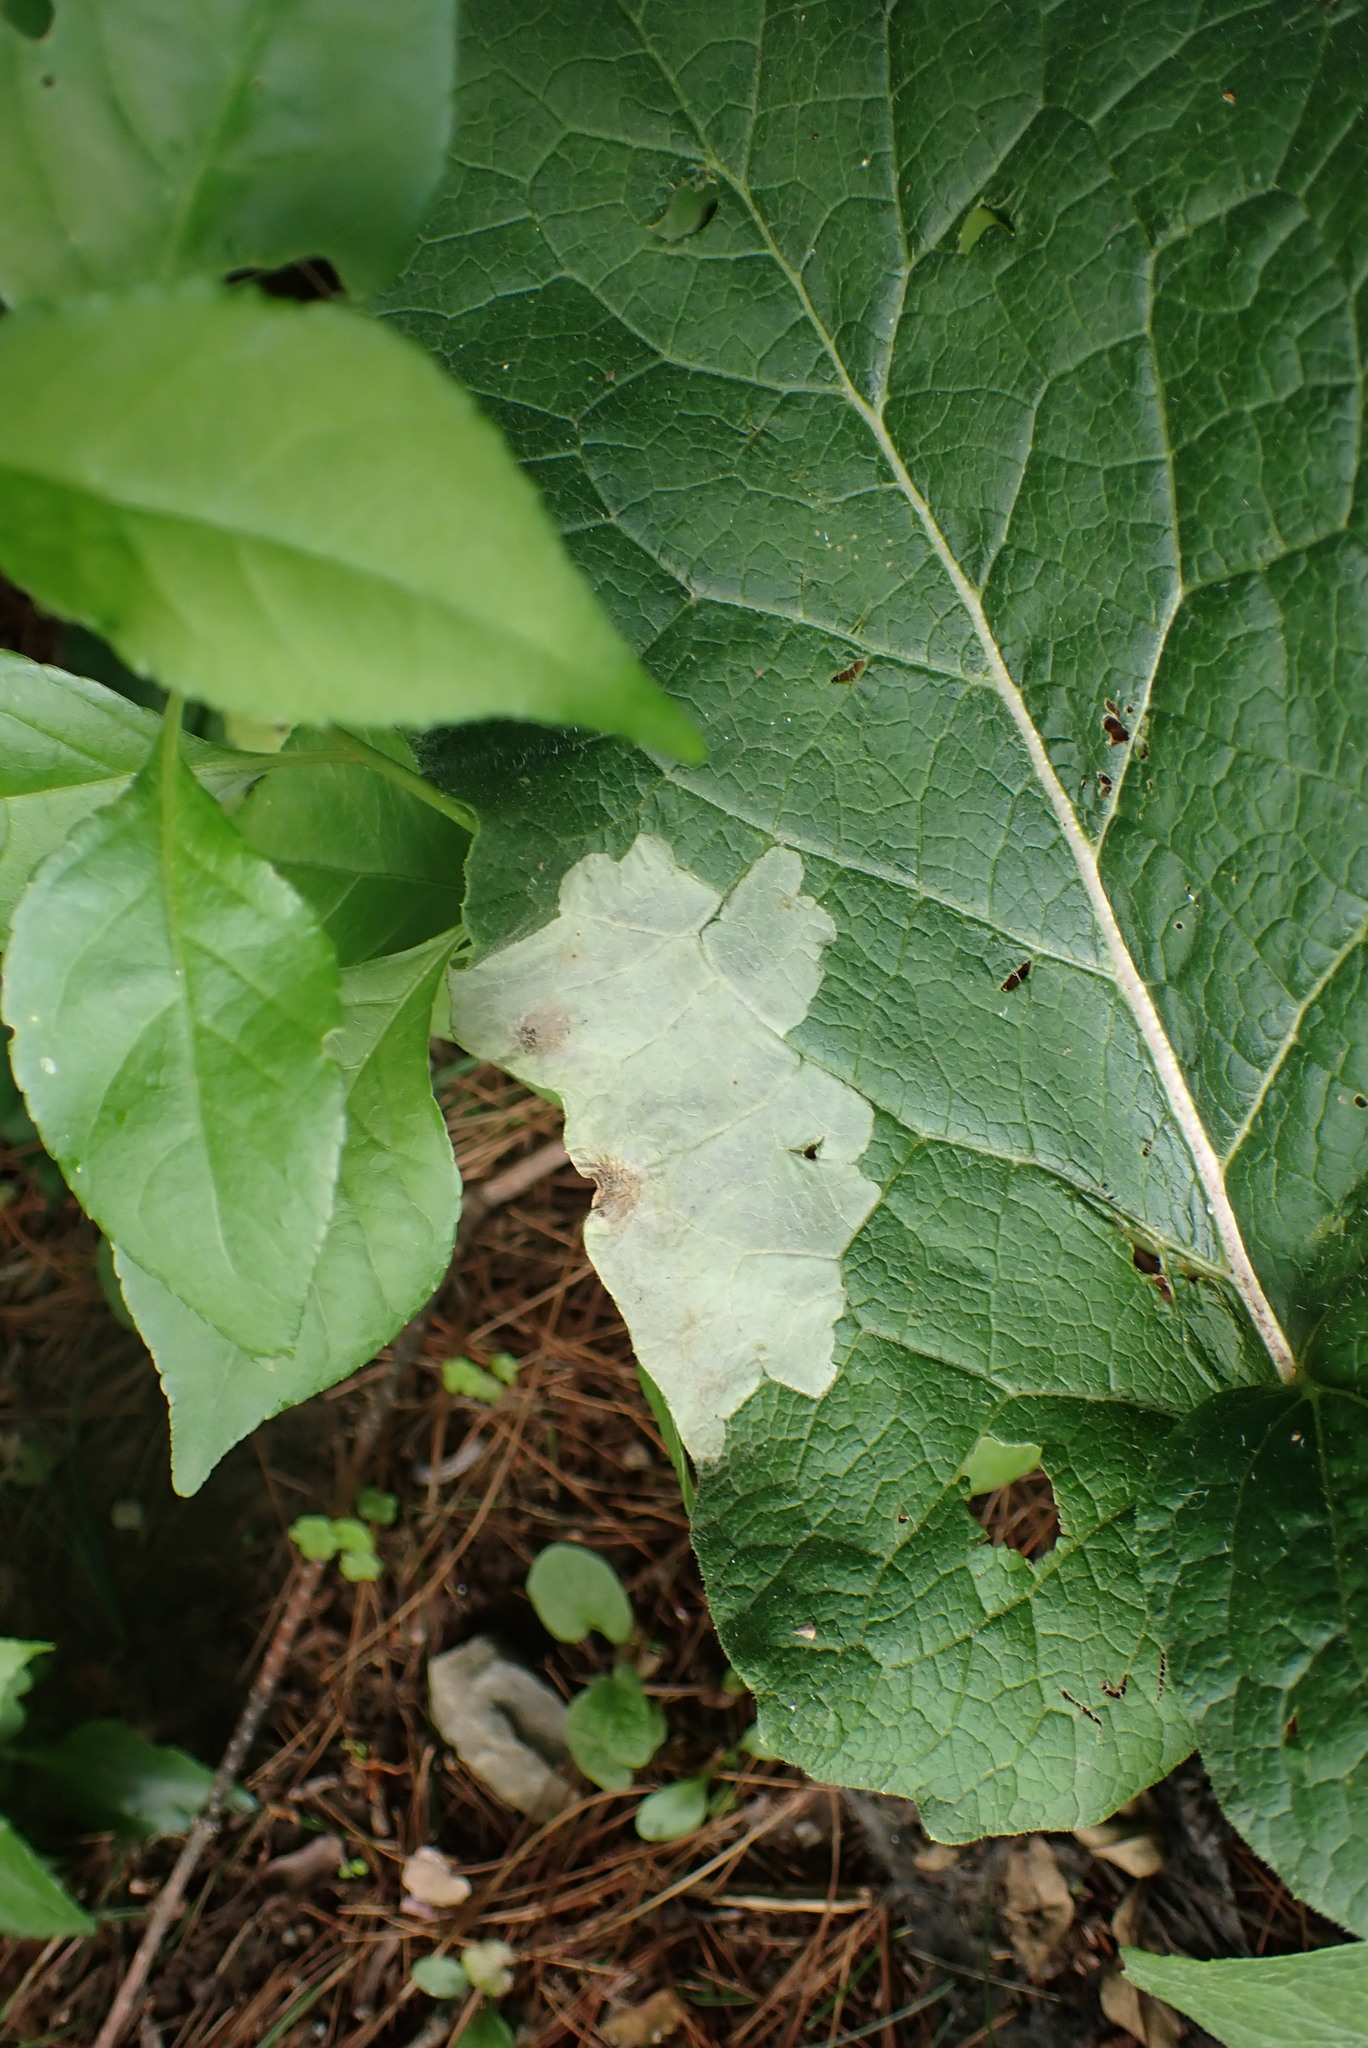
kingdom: Animalia
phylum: Arthropoda
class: Insecta
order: Diptera
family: Agromyzidae
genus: Calycomyza
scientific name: Calycomyza flavinotum
